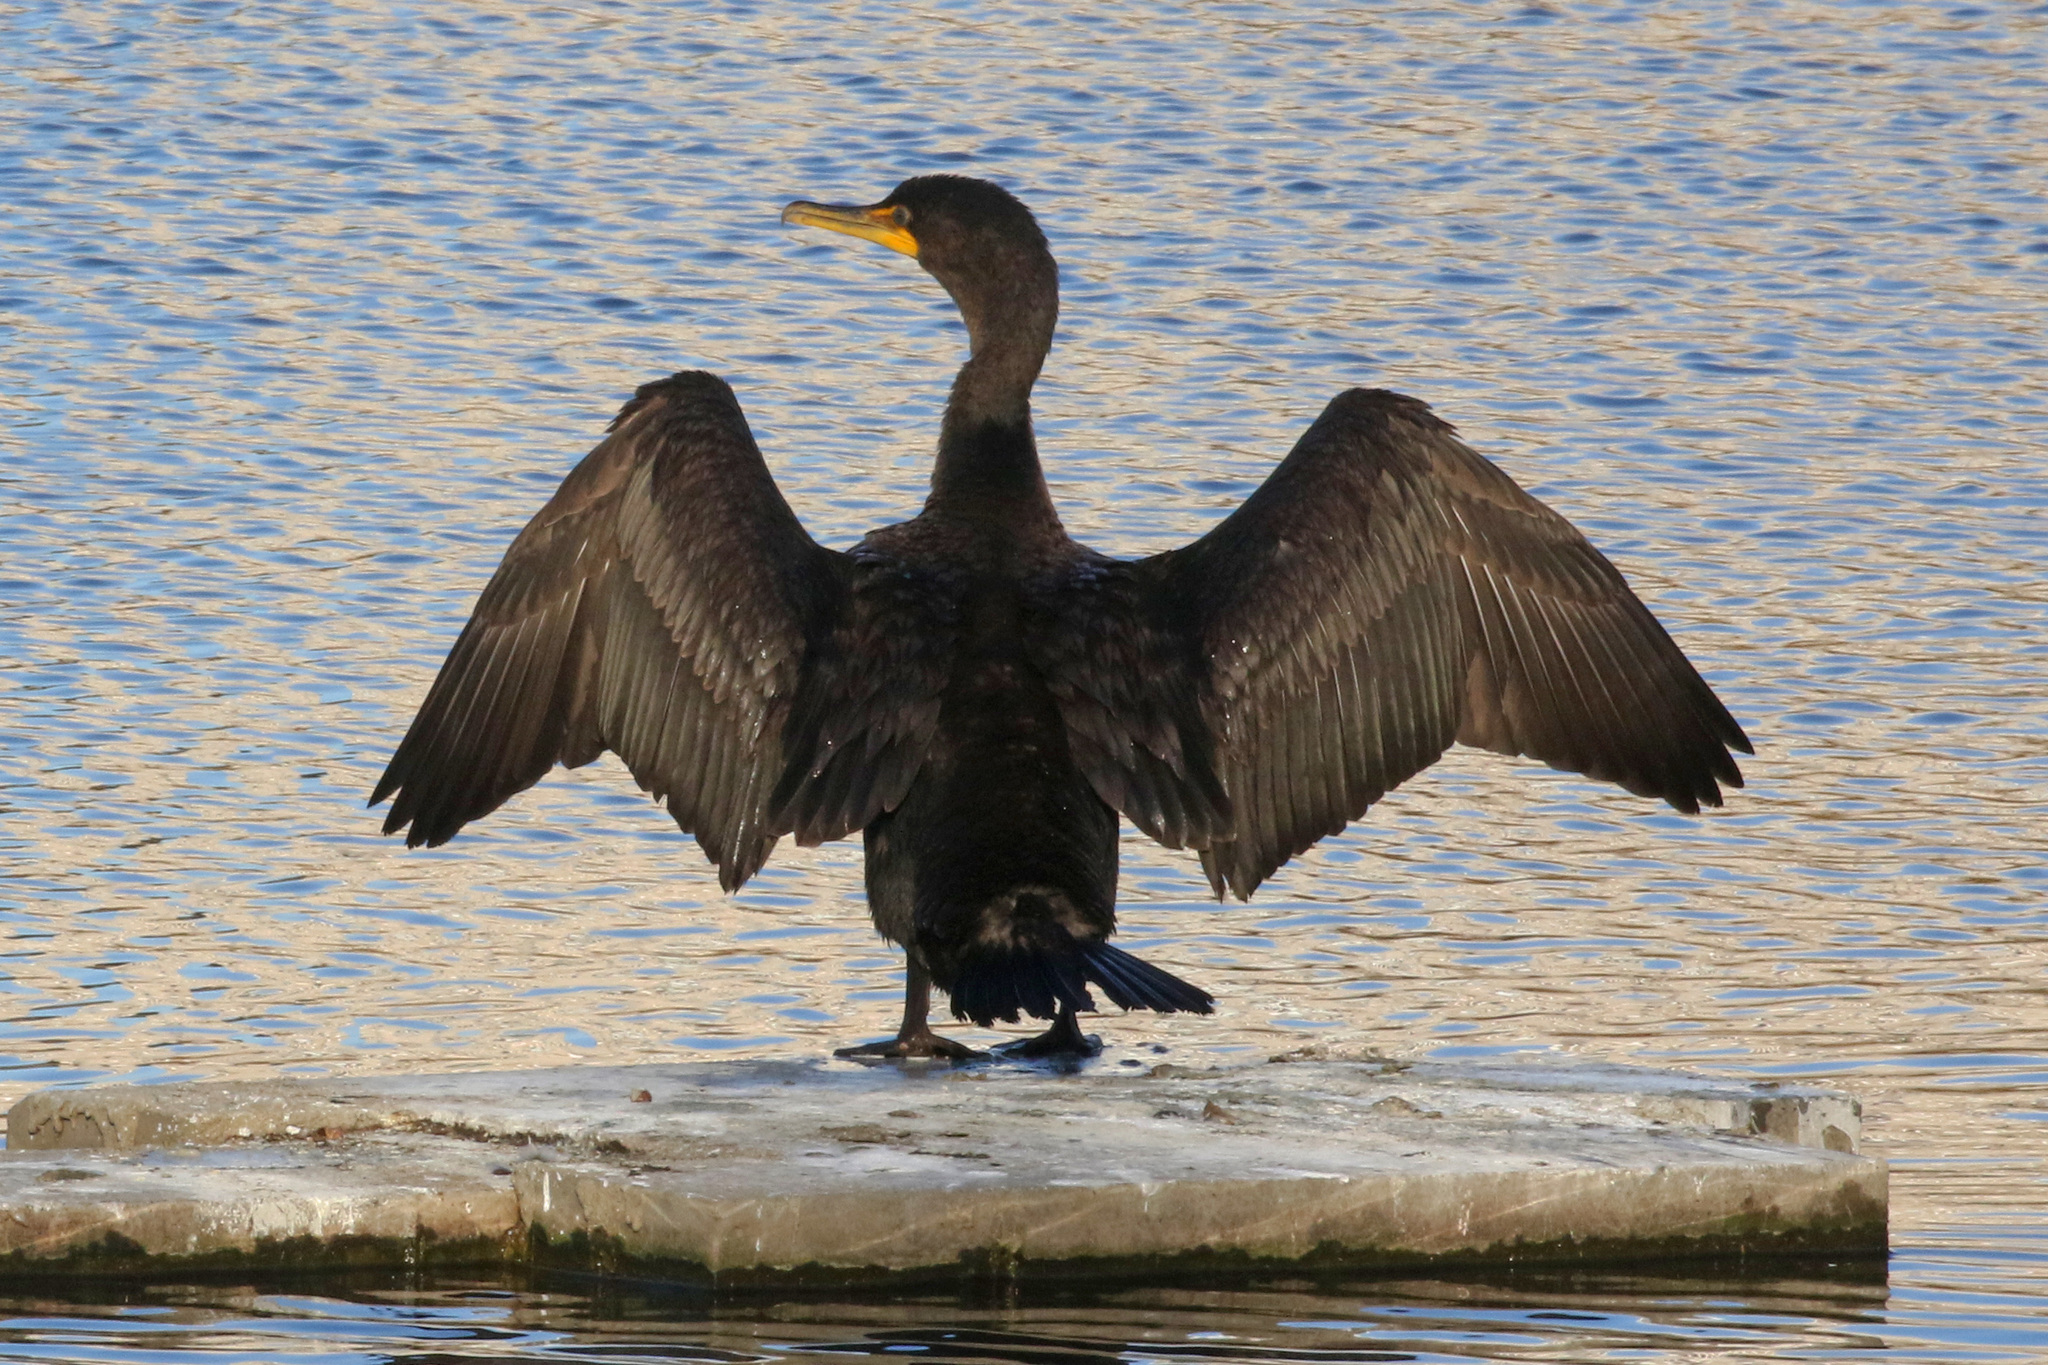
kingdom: Animalia
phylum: Chordata
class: Aves
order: Suliformes
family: Phalacrocoracidae
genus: Phalacrocorax
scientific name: Phalacrocorax auritus
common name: Double-crested cormorant
